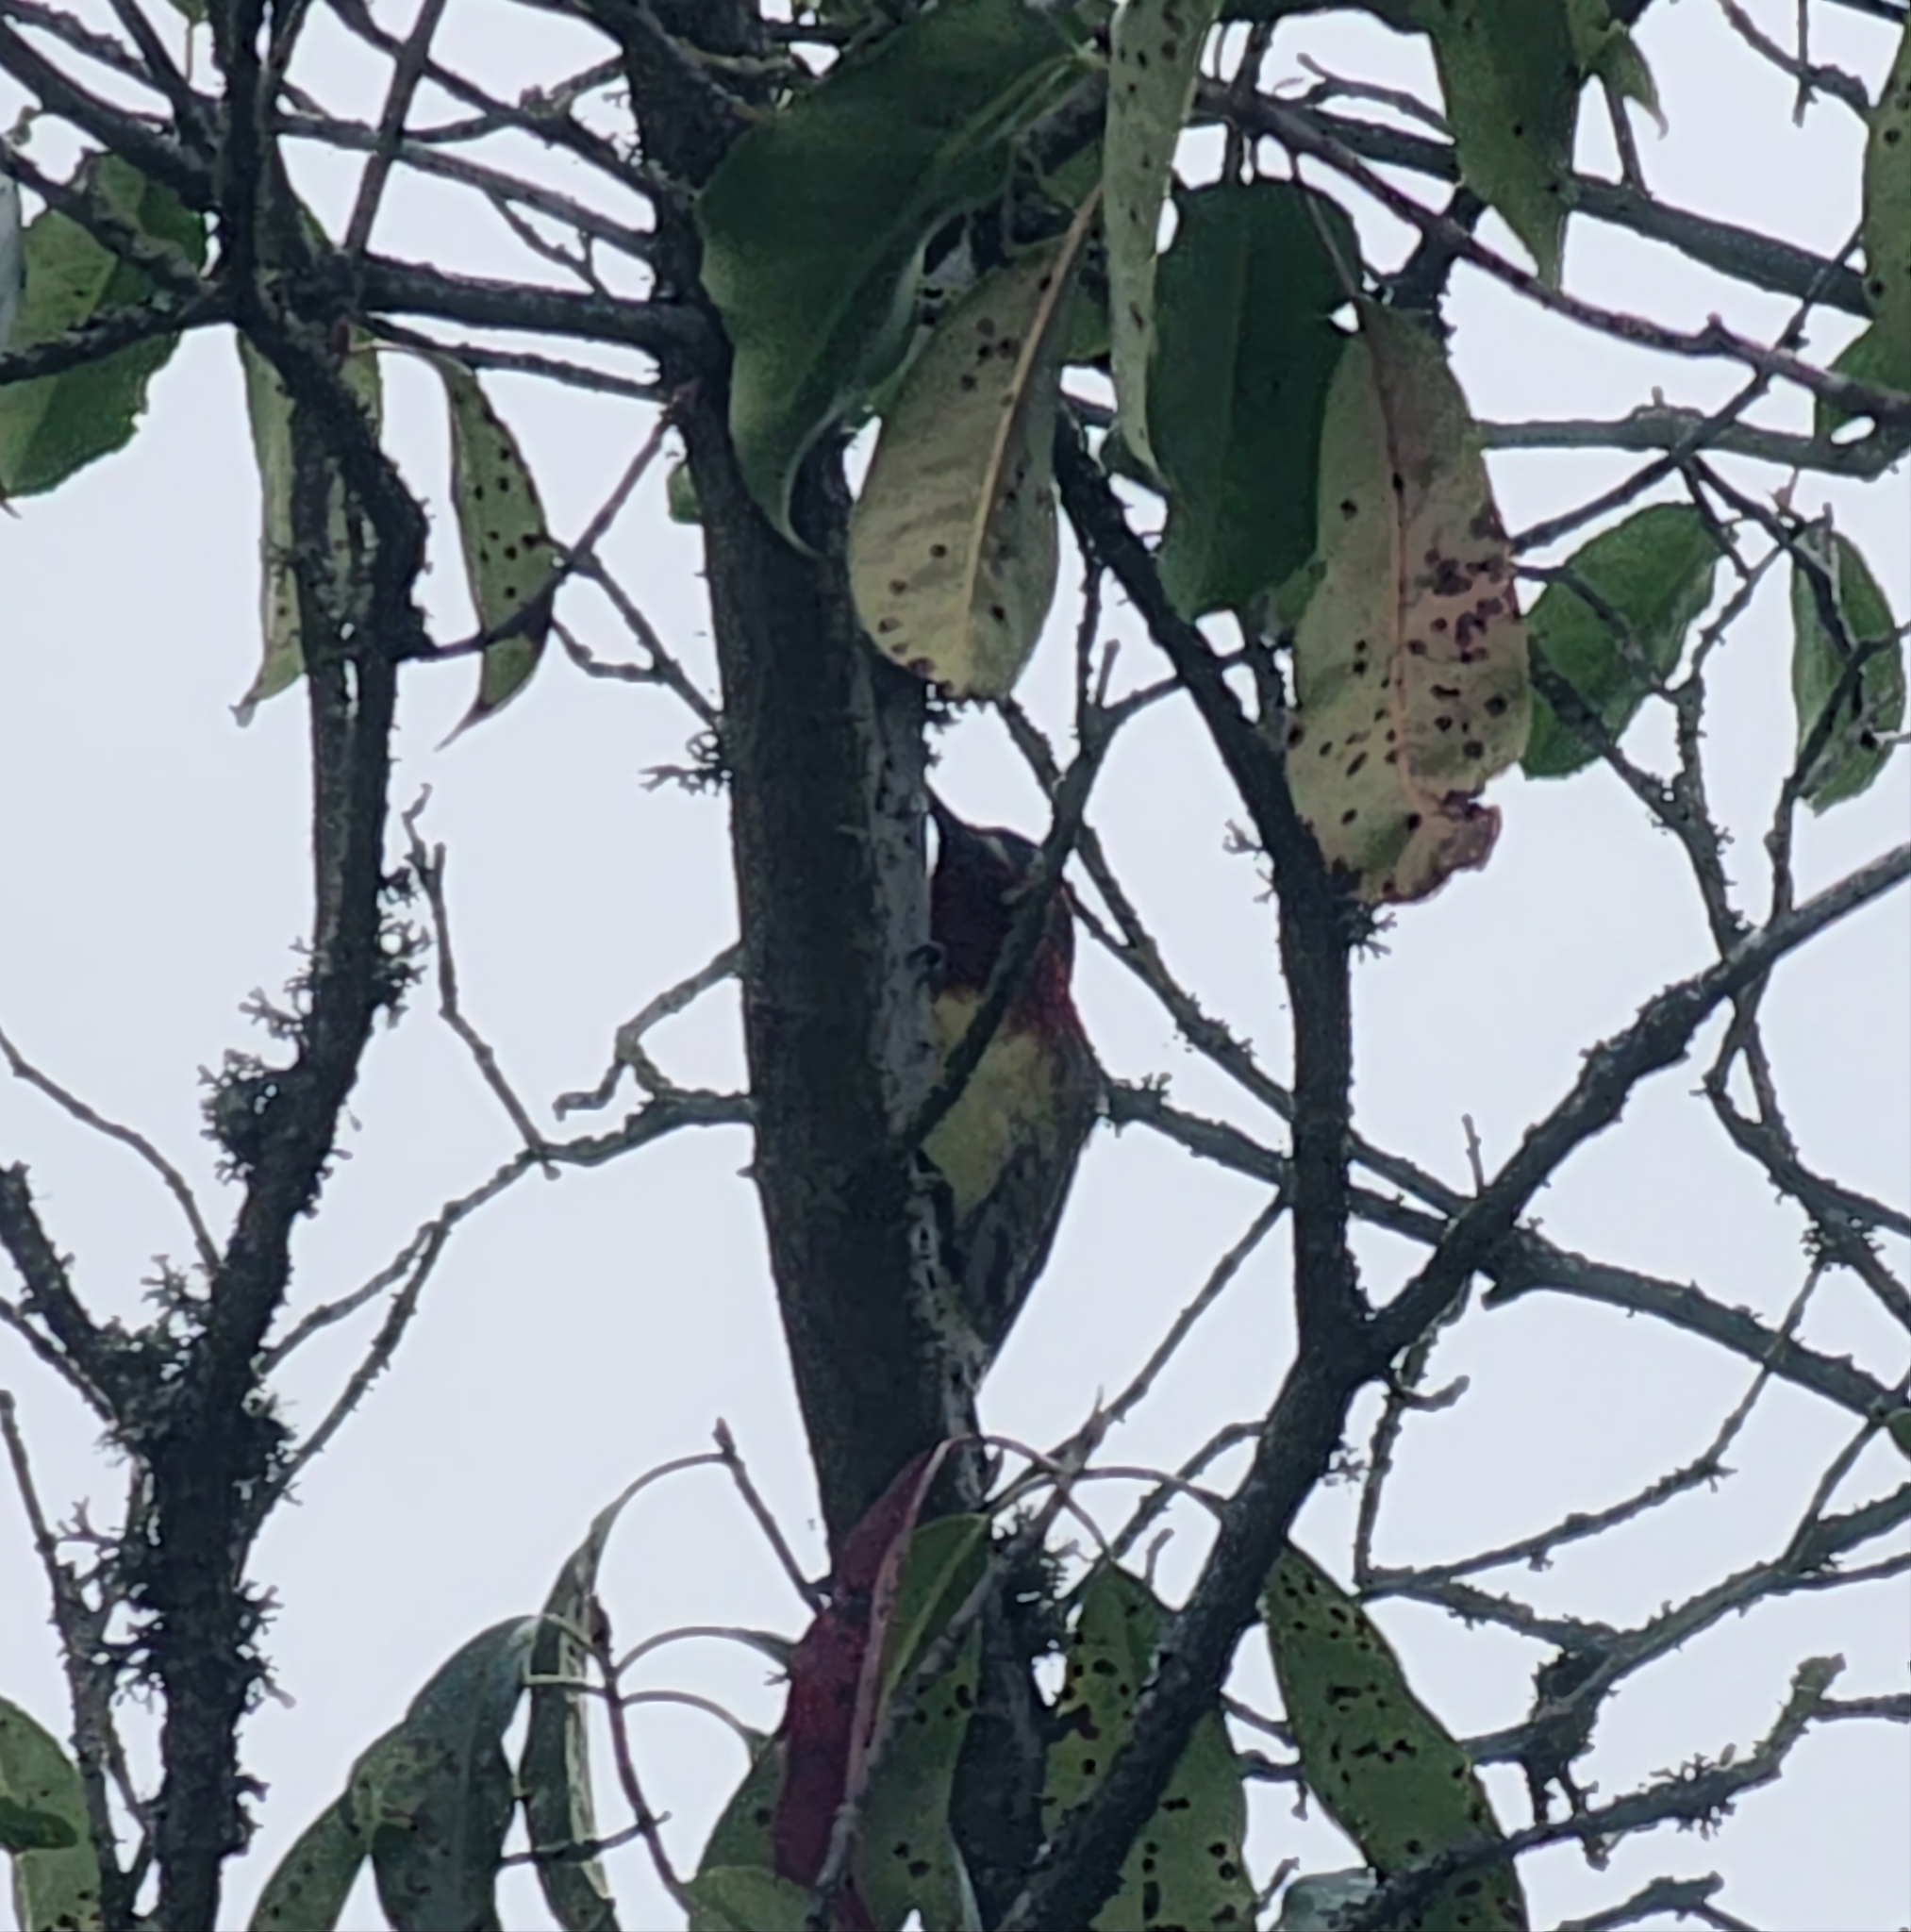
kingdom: Animalia
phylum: Chordata
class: Aves
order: Piciformes
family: Picidae
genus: Sphyrapicus
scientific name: Sphyrapicus ruber
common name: Red-breasted sapsucker
